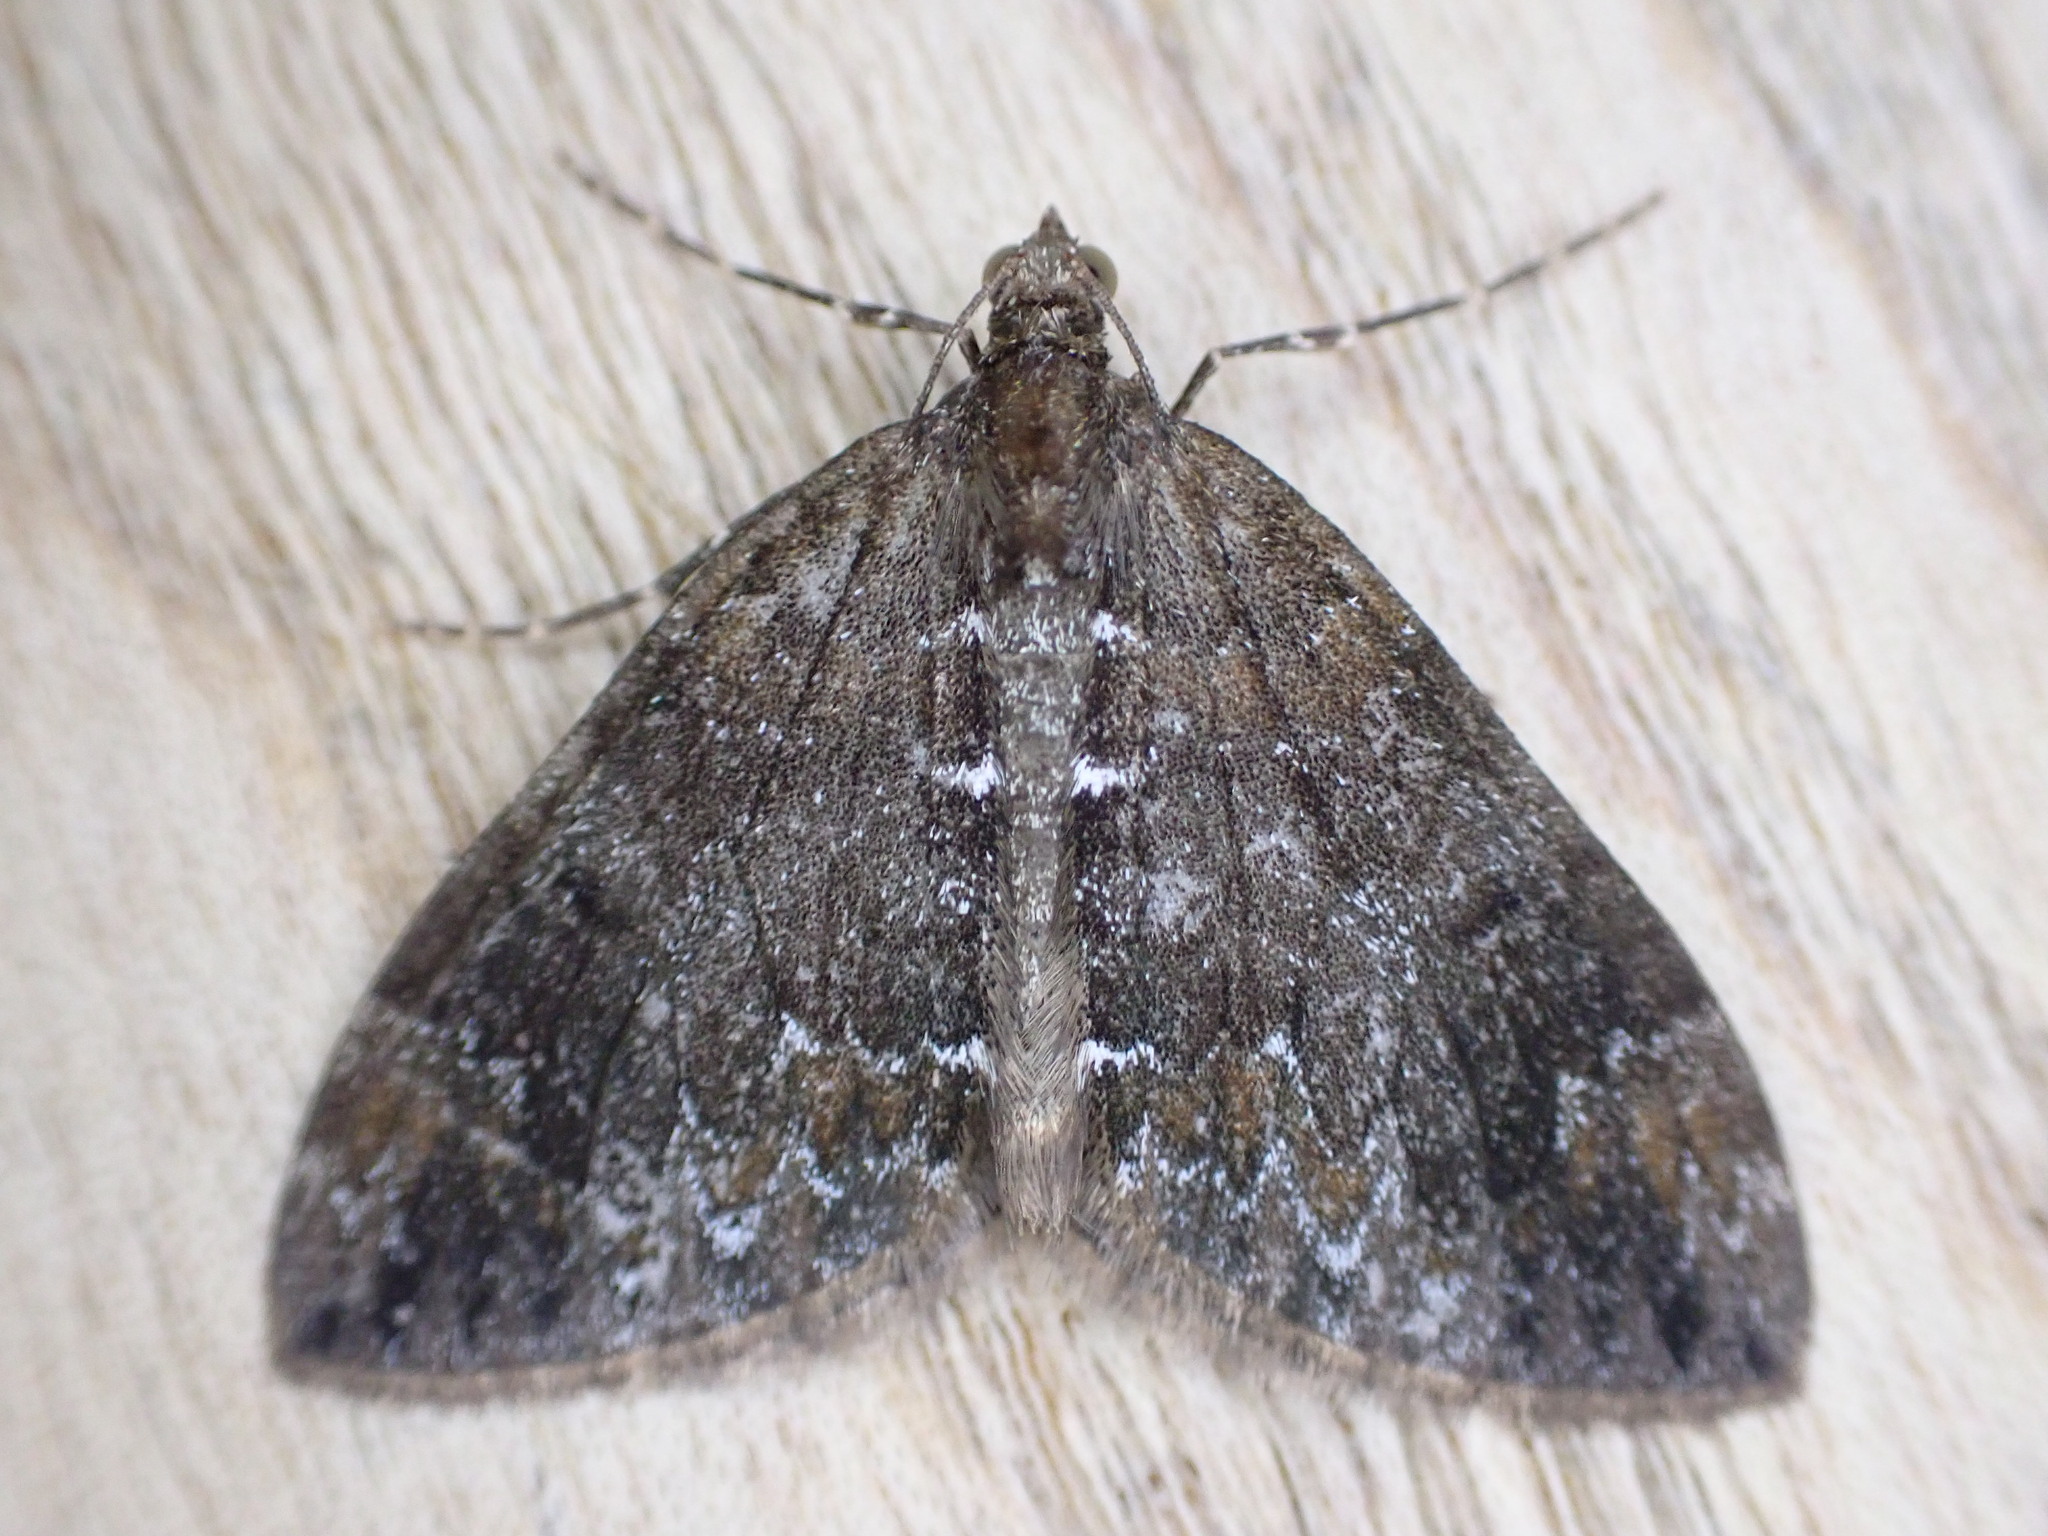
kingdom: Animalia
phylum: Arthropoda
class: Insecta
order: Lepidoptera
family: Geometridae
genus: Dysstroma
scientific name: Dysstroma truncata
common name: Common marbled carpet
